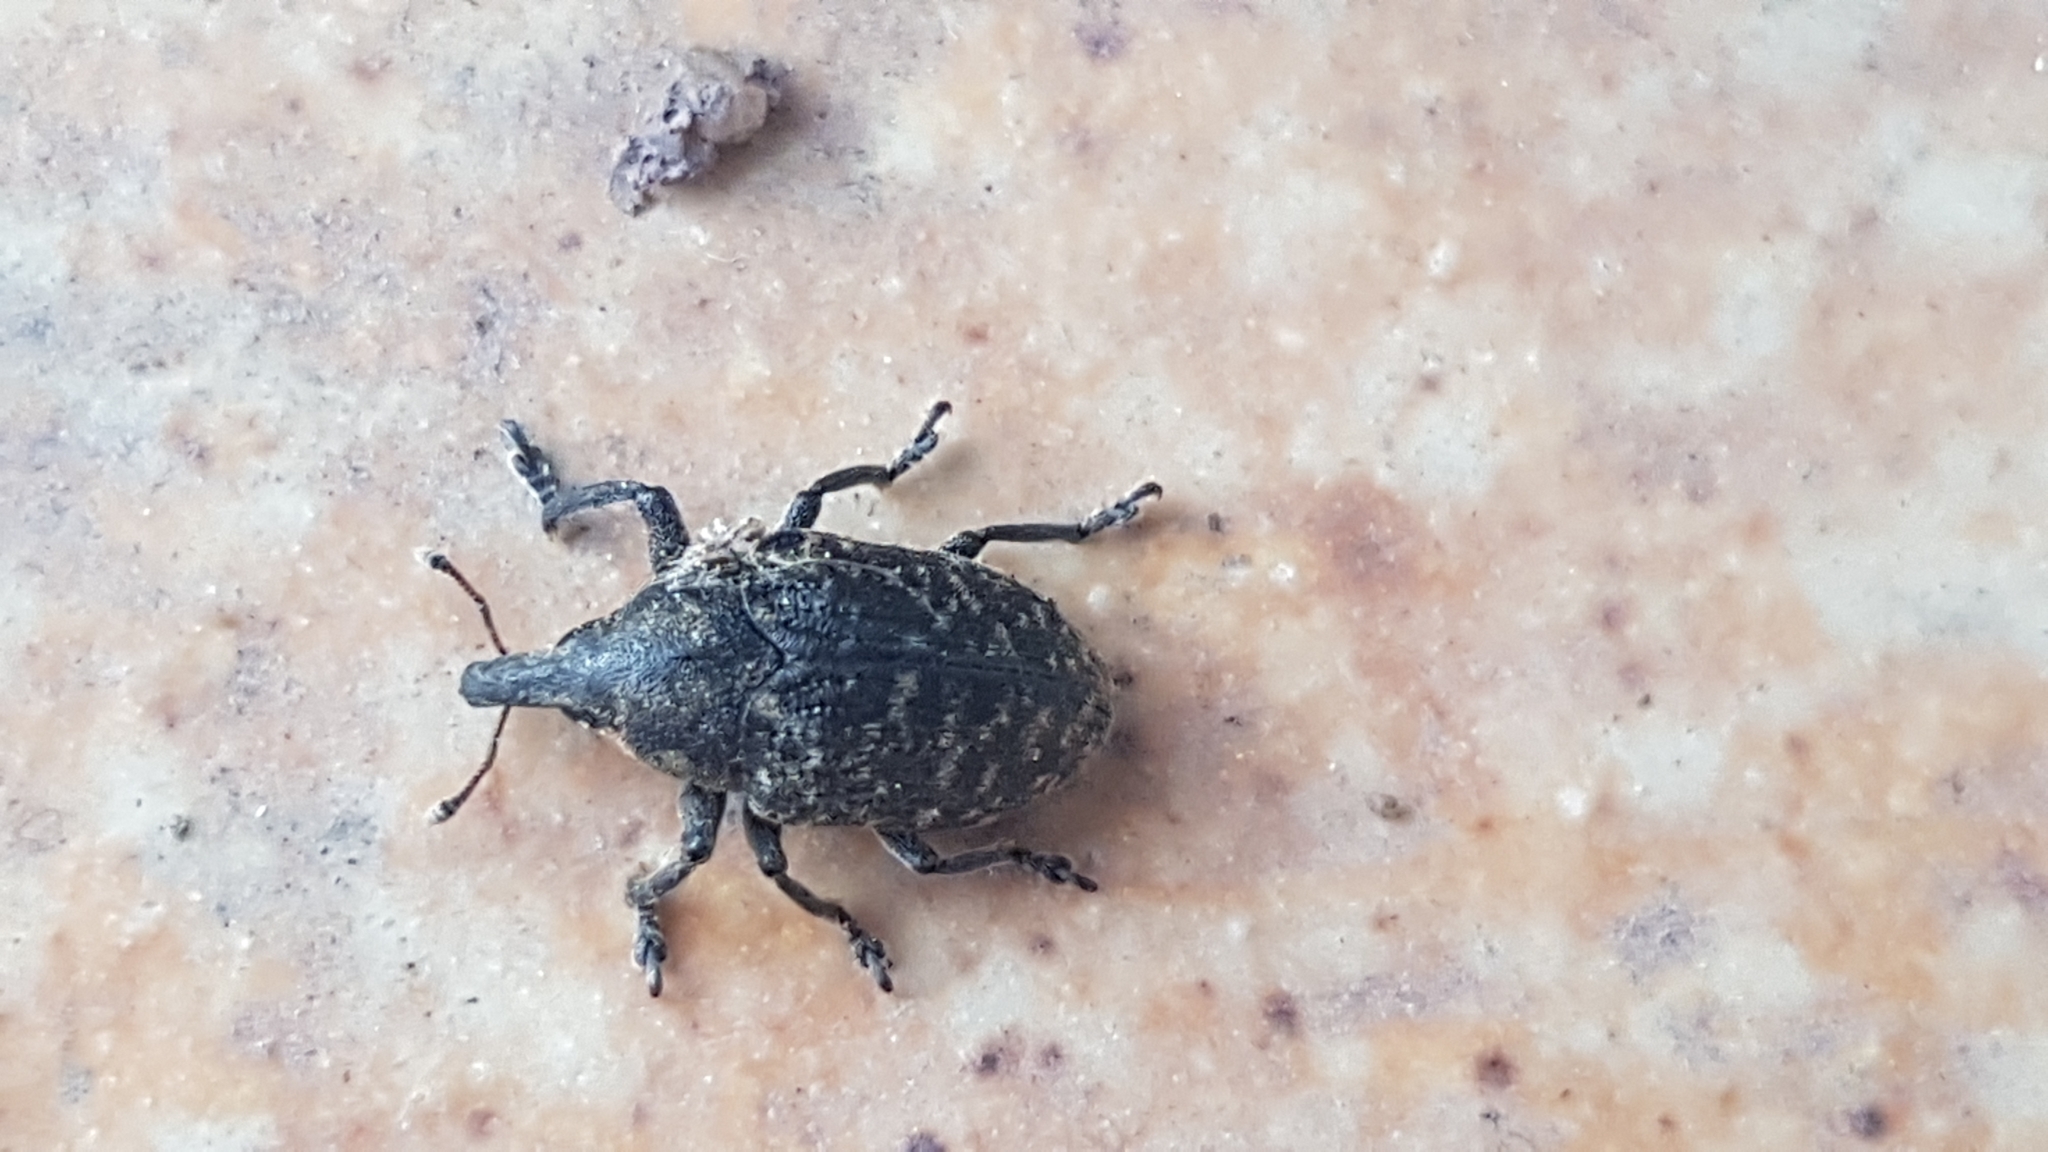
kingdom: Animalia
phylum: Arthropoda
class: Insecta
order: Coleoptera
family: Curculionidae
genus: Larinus
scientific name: Larinus turbinatus
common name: Weevil
